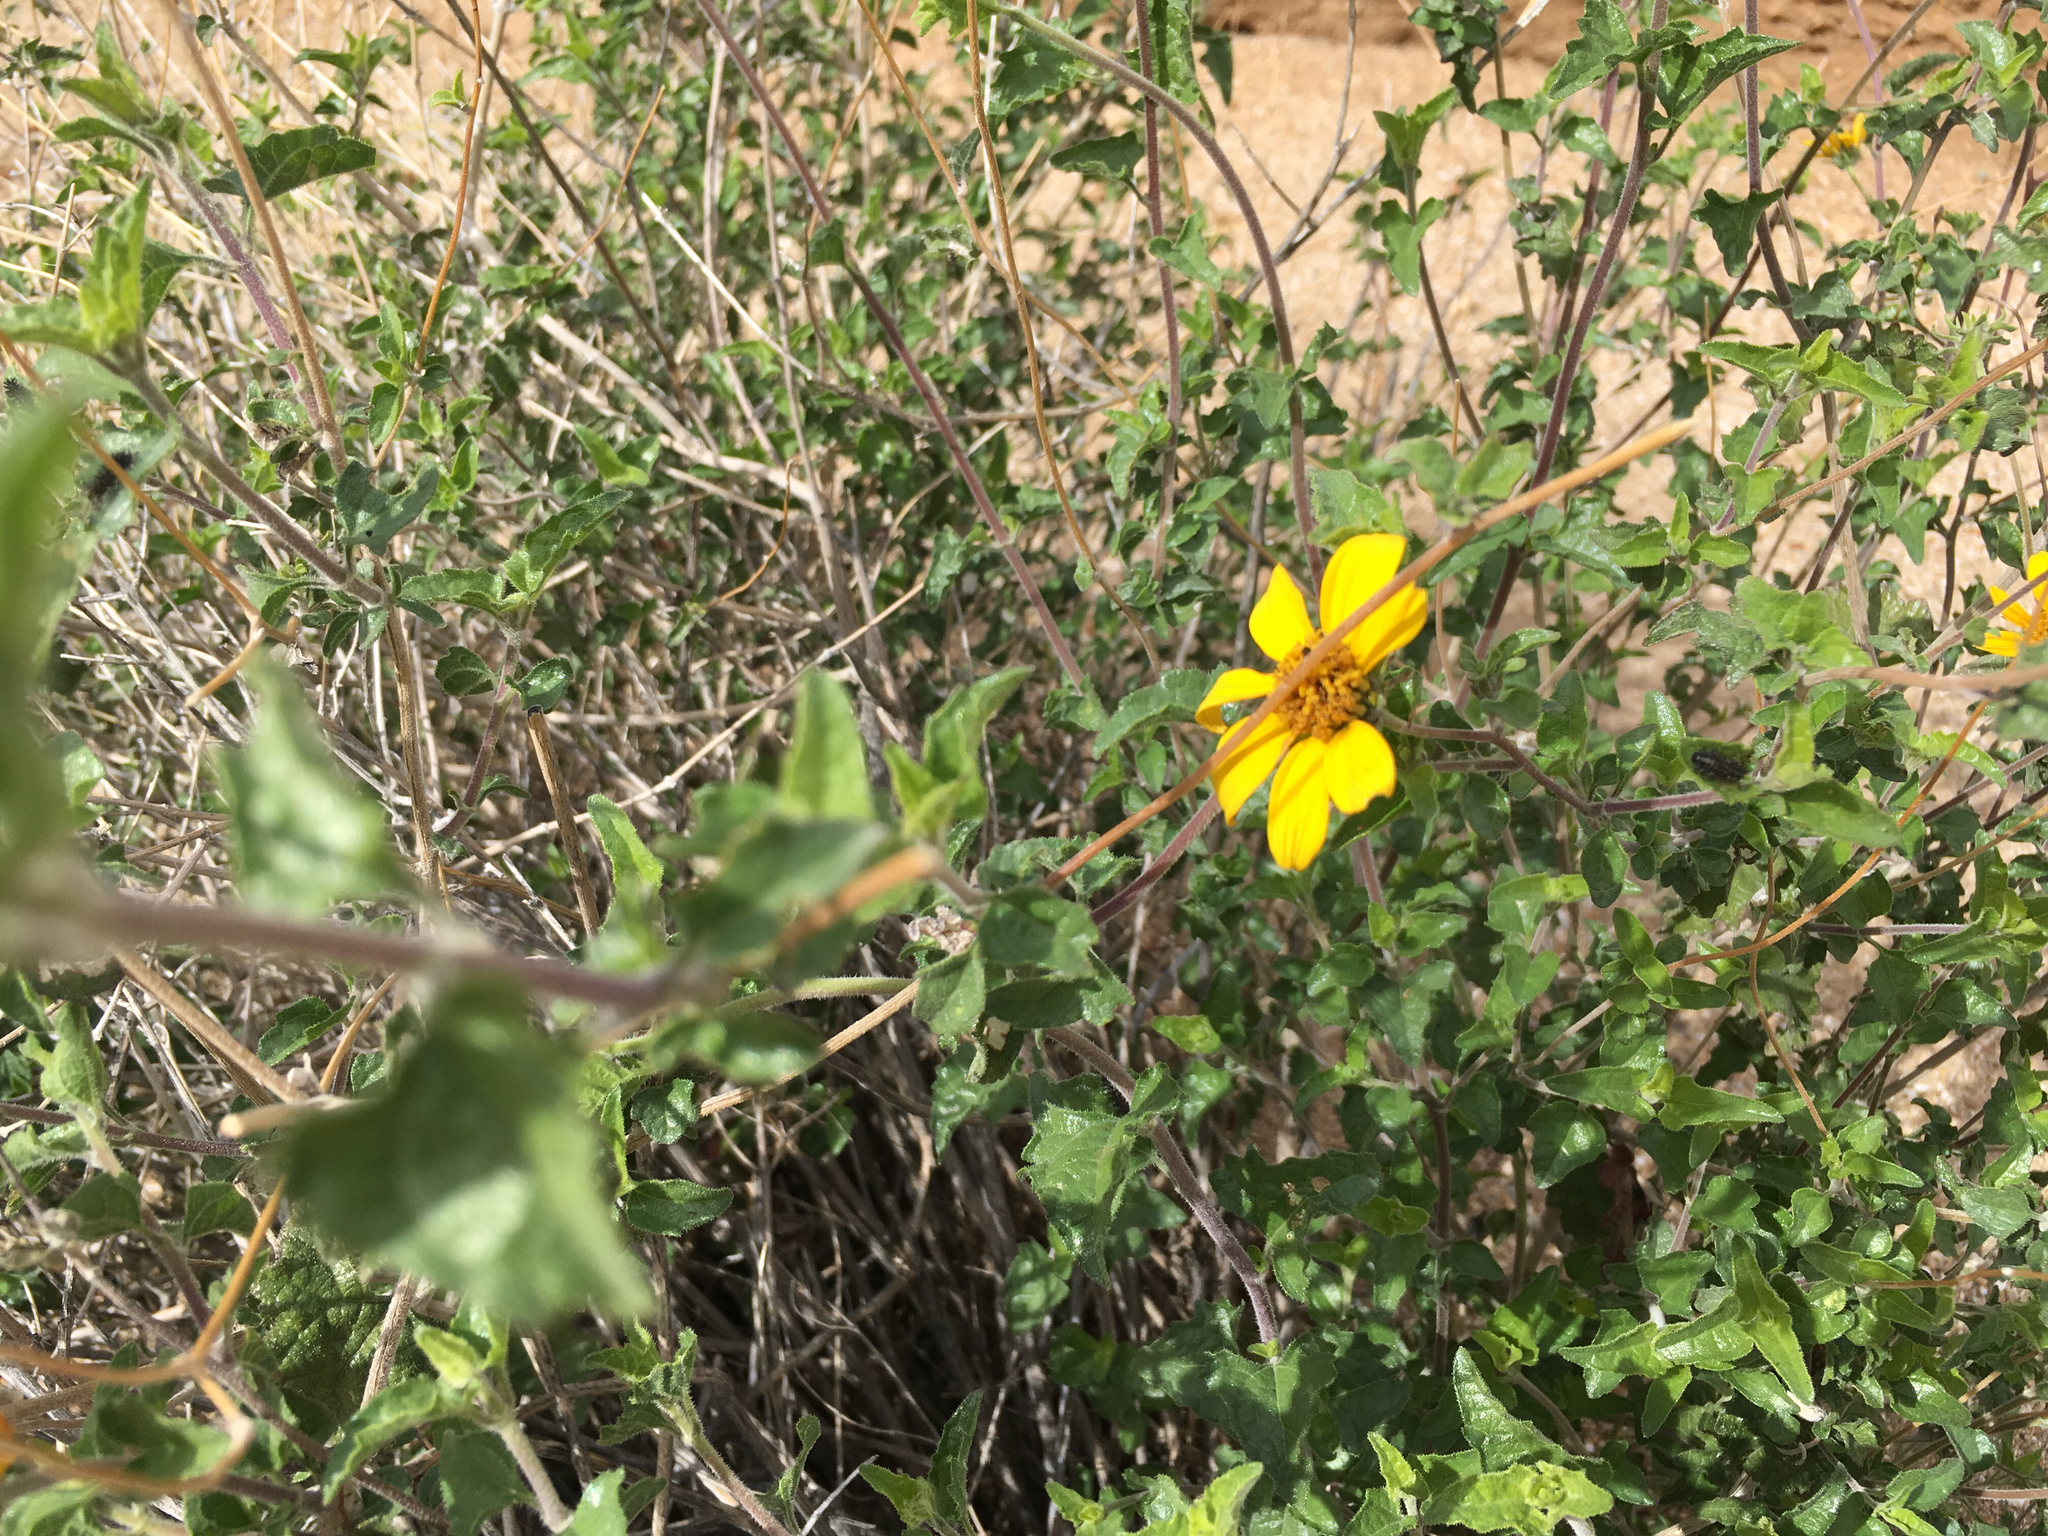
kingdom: Plantae
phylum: Tracheophyta
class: Magnoliopsida
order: Asterales
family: Asteraceae
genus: Bahiopsis
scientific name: Bahiopsis parishii
